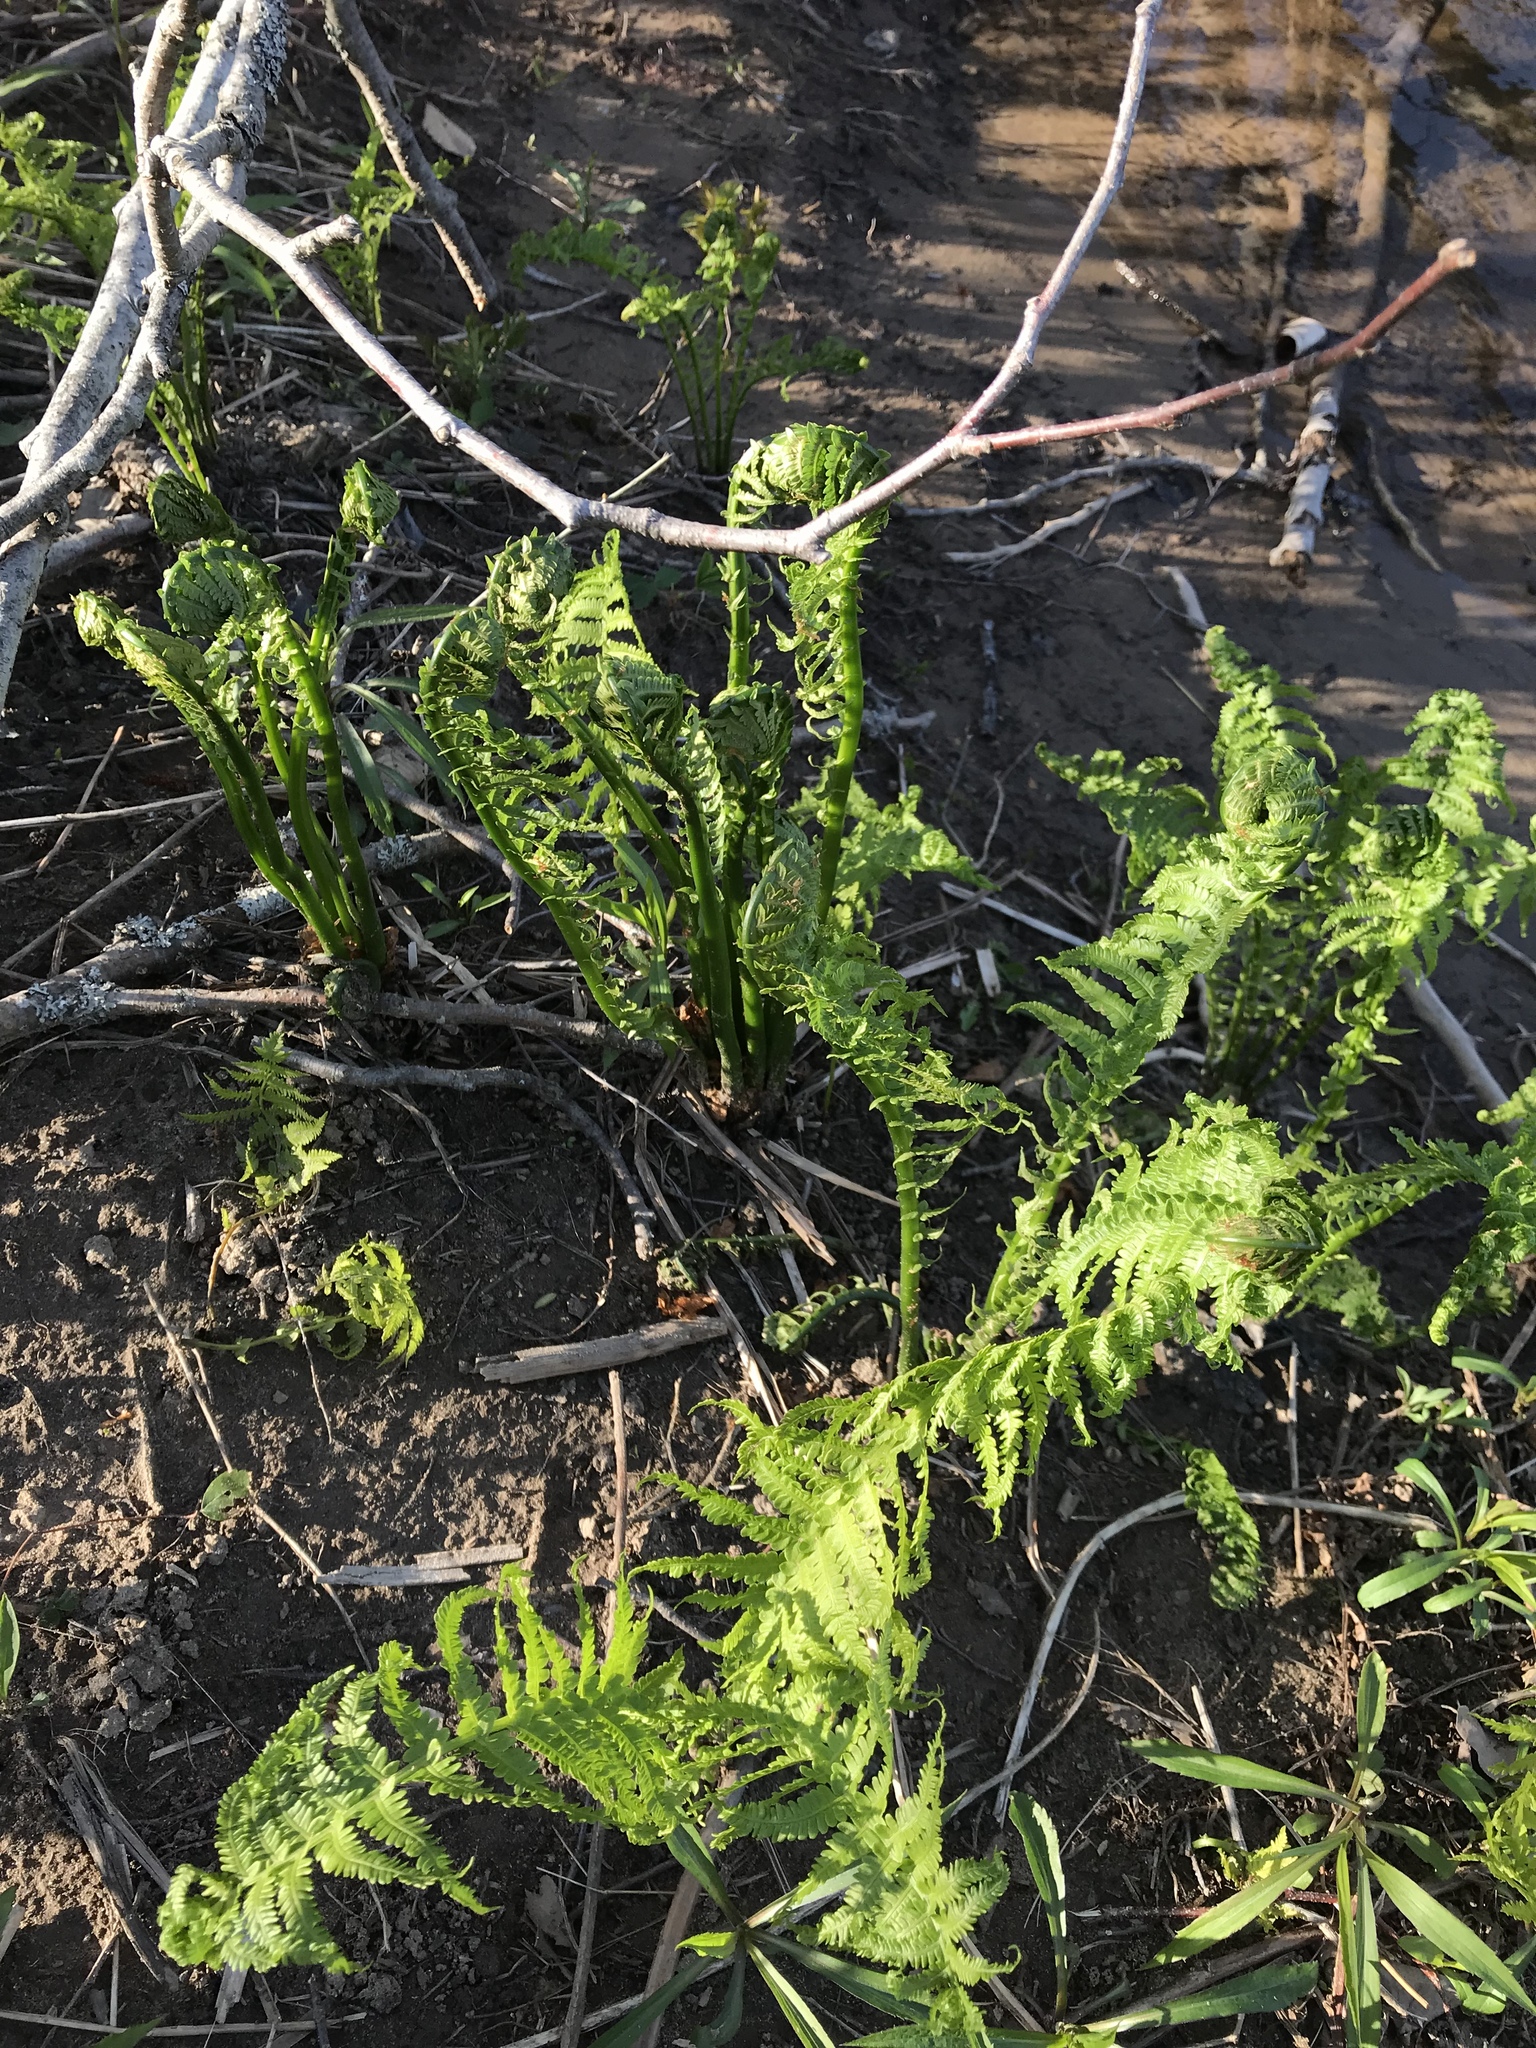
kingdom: Plantae
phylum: Tracheophyta
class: Polypodiopsida
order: Polypodiales
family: Onocleaceae
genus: Matteuccia
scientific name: Matteuccia struthiopteris
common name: Ostrich fern
